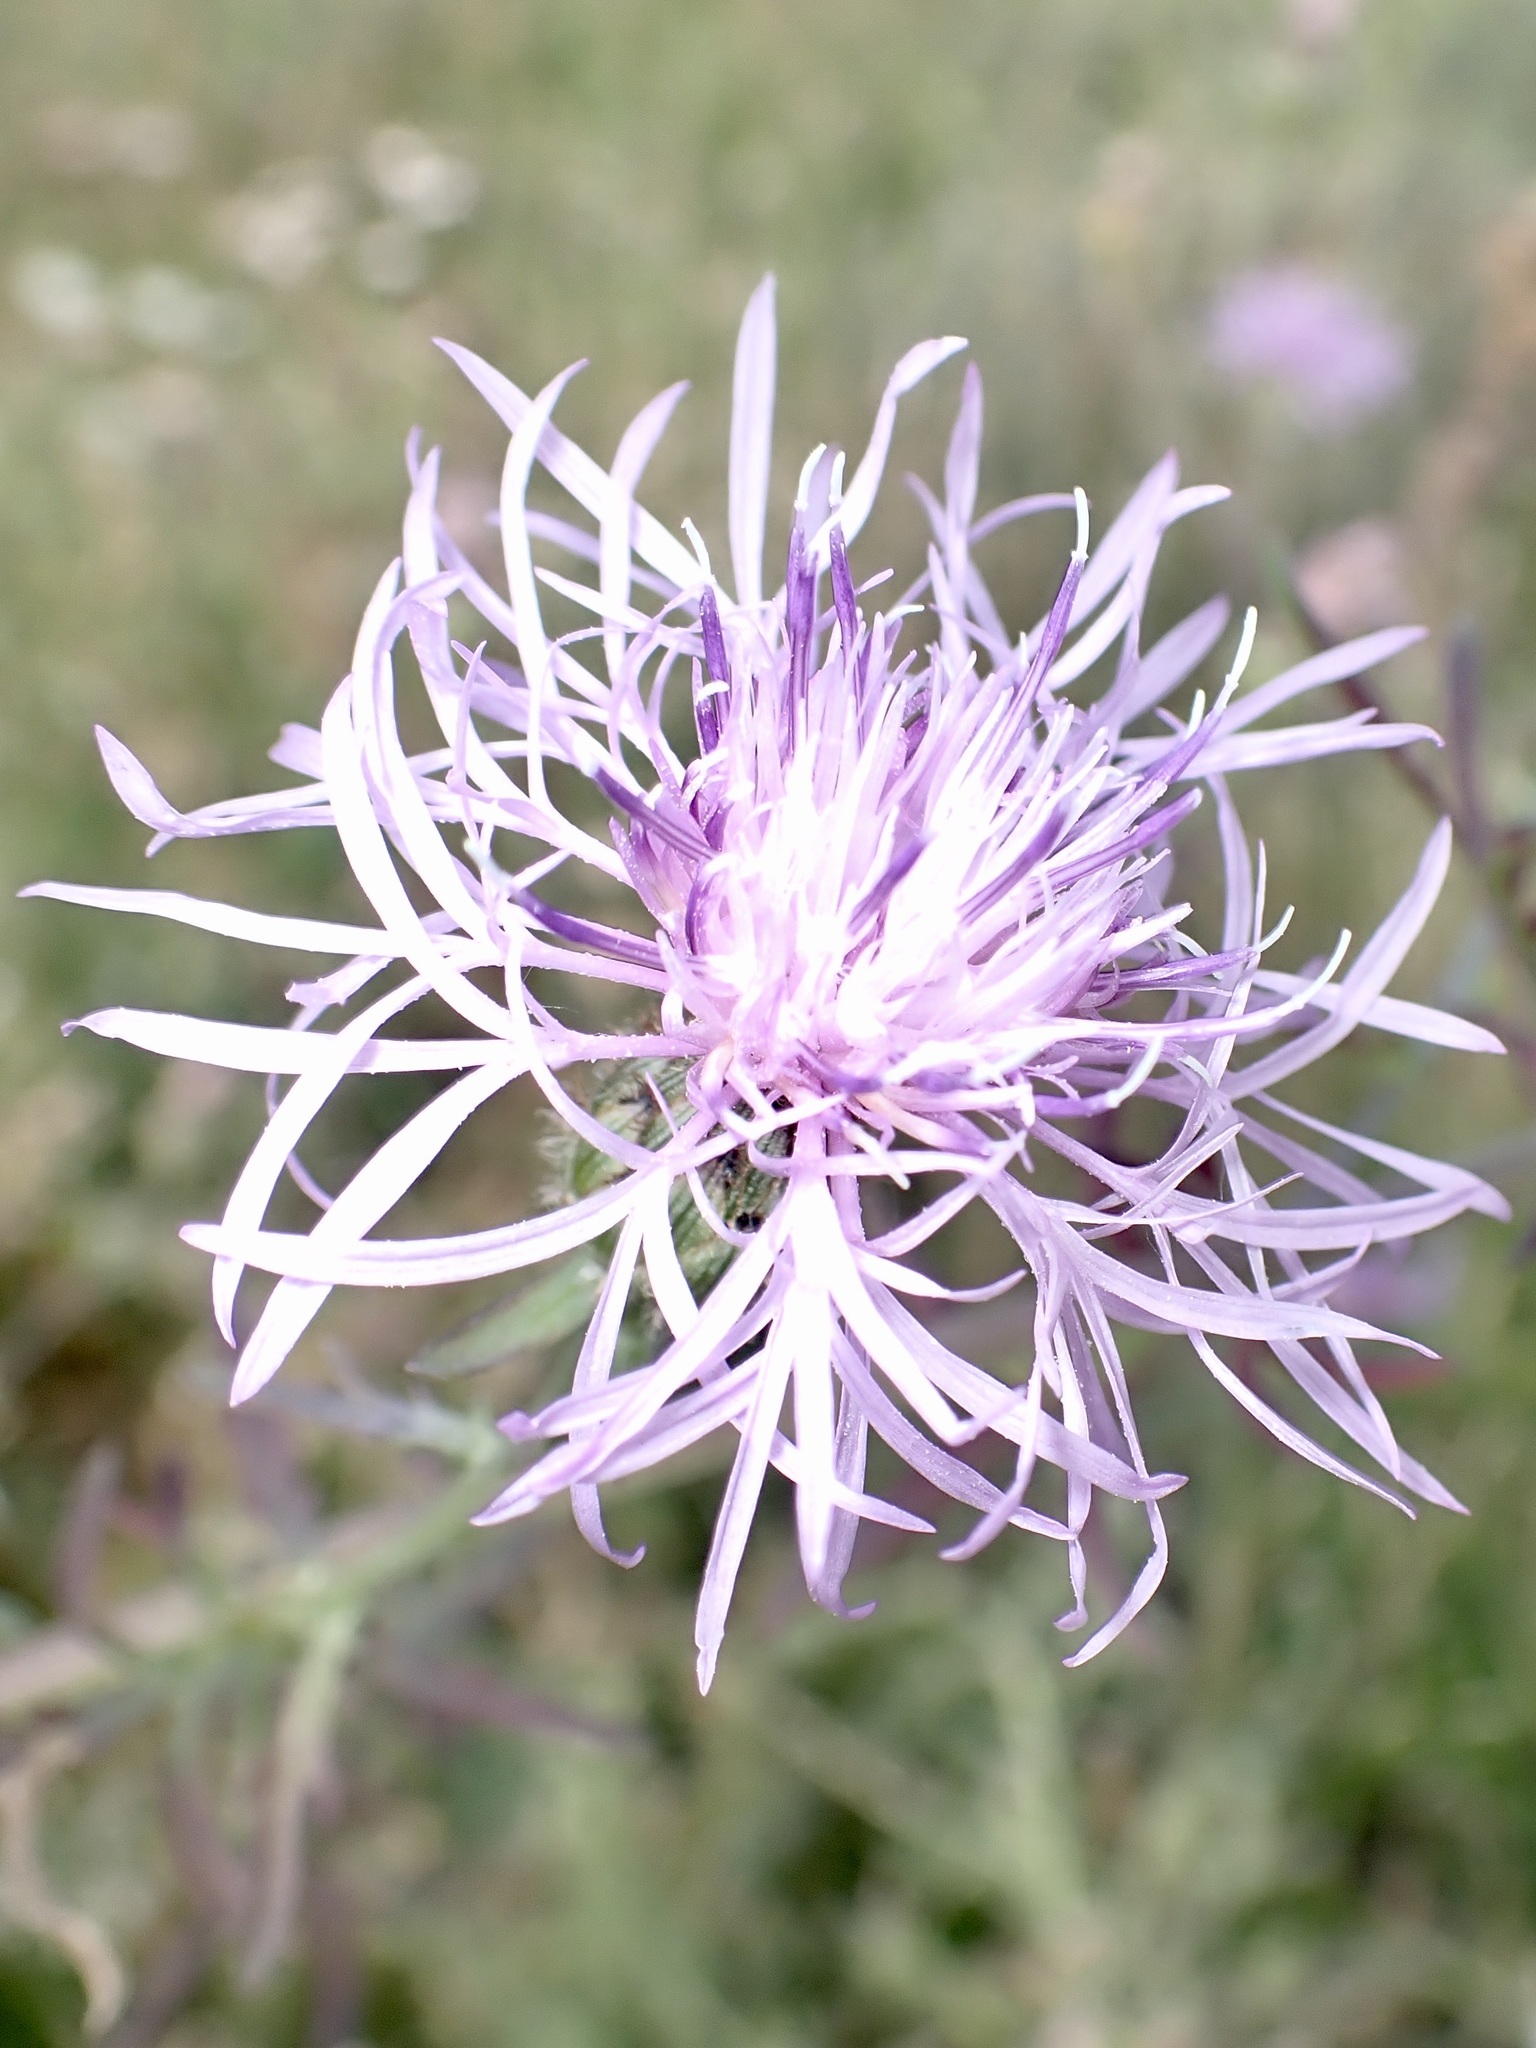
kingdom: Plantae
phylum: Tracheophyta
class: Magnoliopsida
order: Asterales
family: Asteraceae
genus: Centaurea
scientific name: Centaurea stoebe
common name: Spotted knapweed
